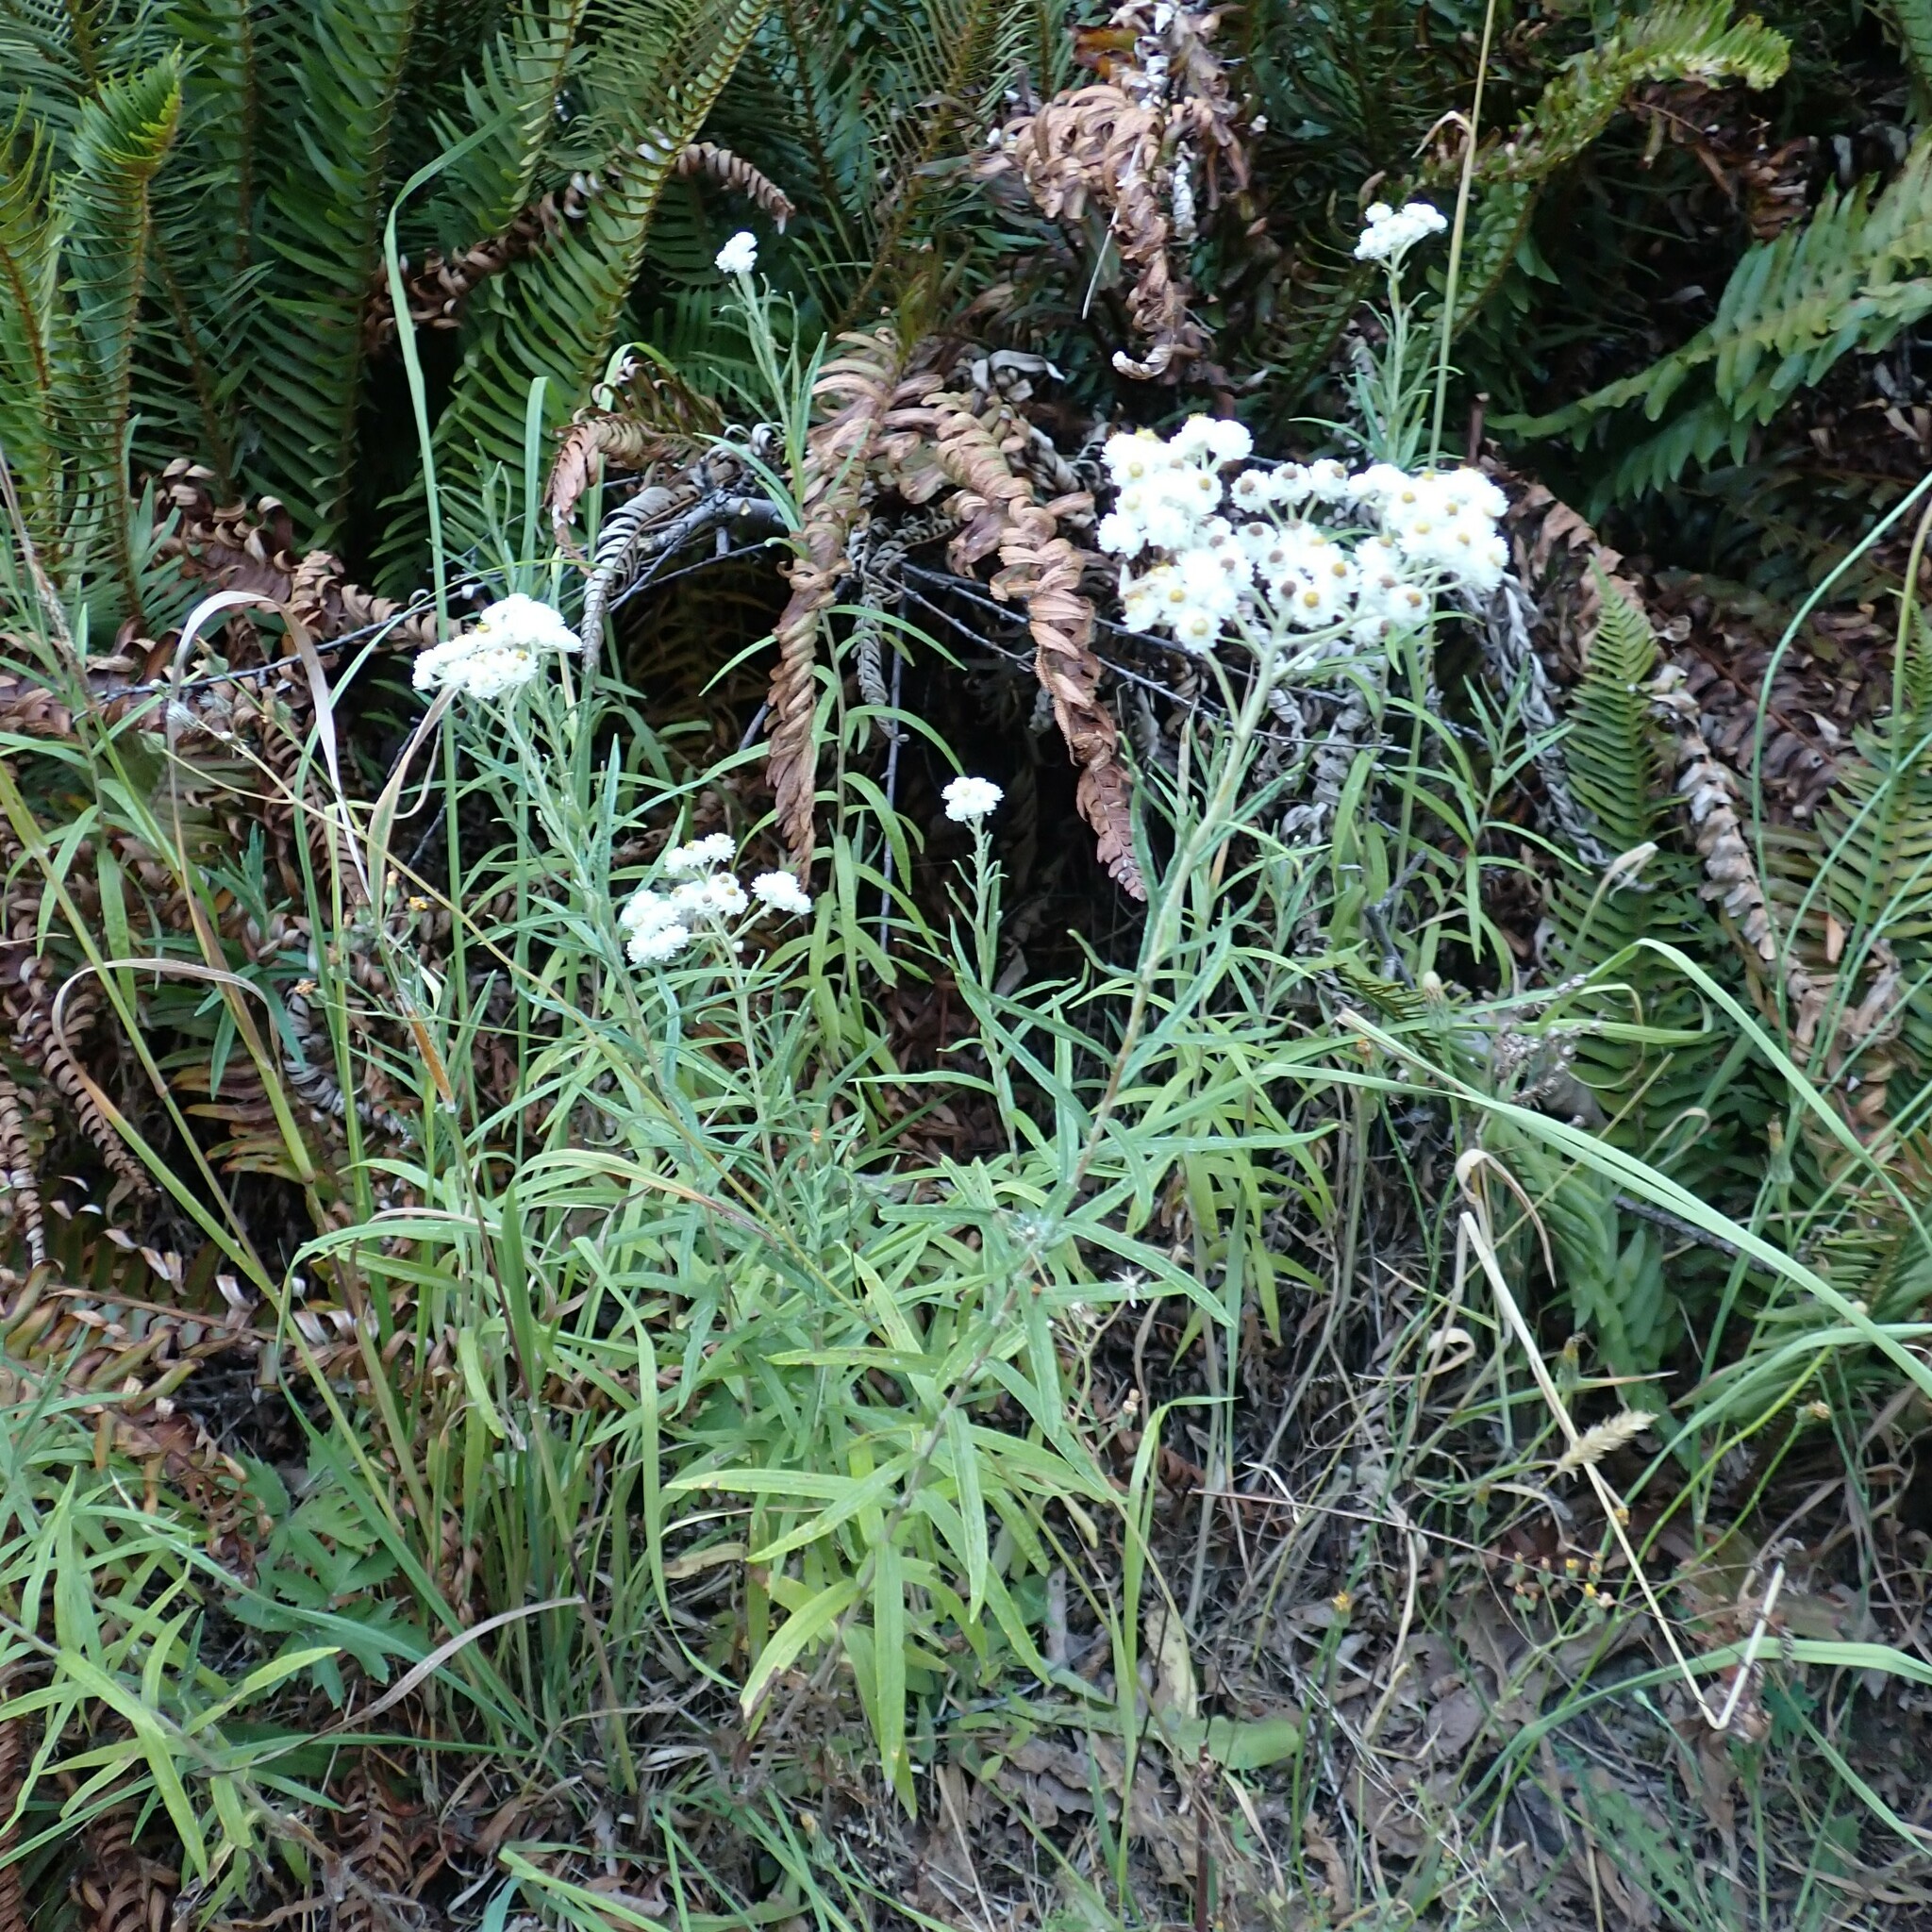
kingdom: Plantae
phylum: Tracheophyta
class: Magnoliopsida
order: Asterales
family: Asteraceae
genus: Anaphalis
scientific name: Anaphalis margaritacea
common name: Pearly everlasting
